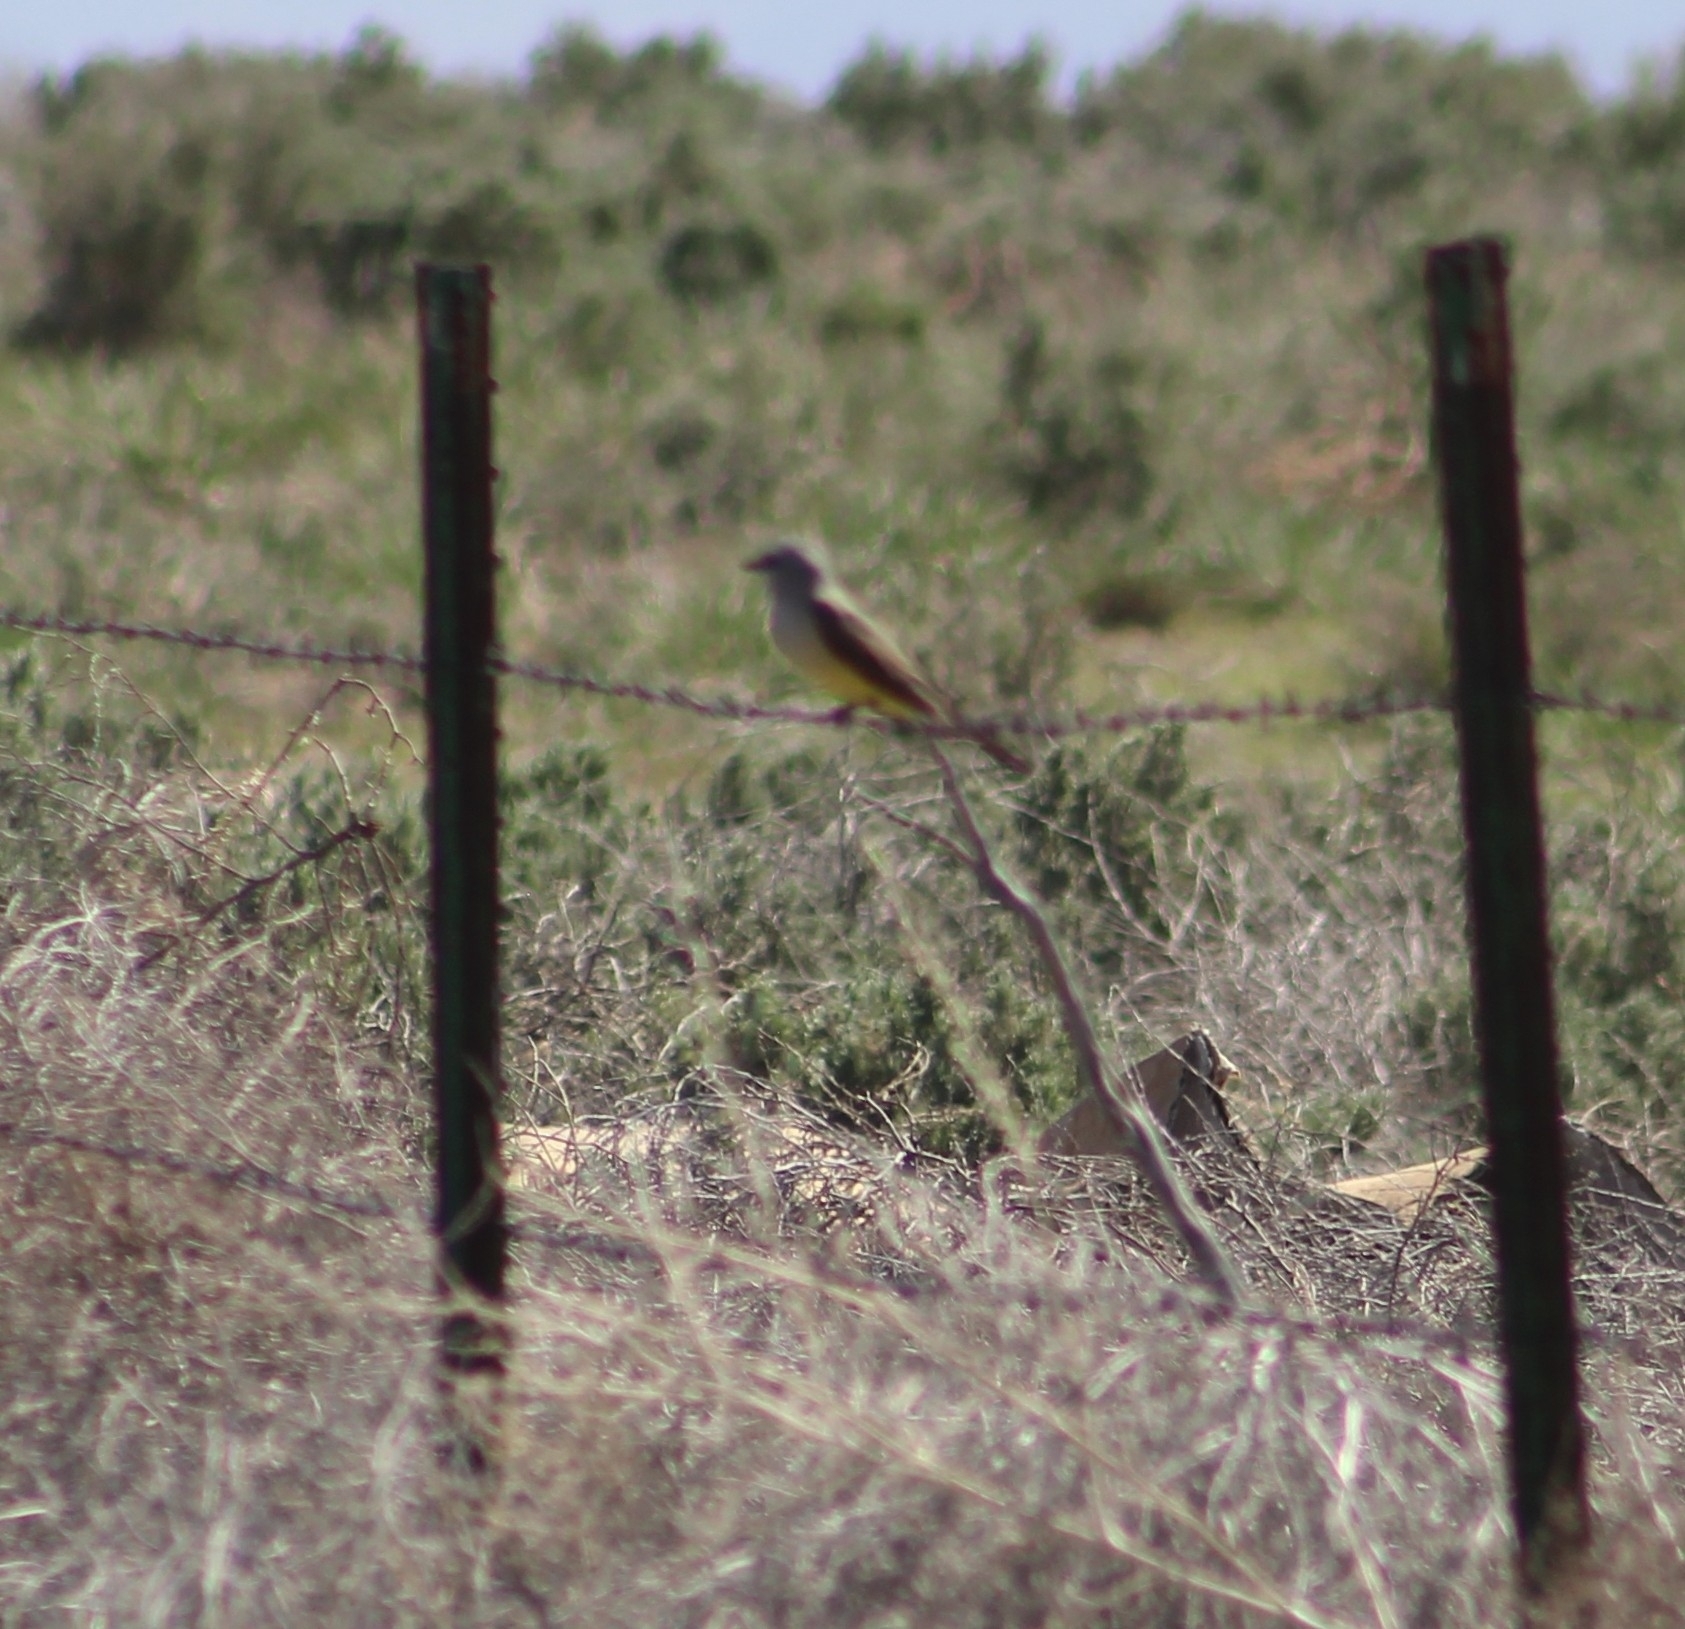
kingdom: Animalia
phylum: Chordata
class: Aves
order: Passeriformes
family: Tyrannidae
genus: Tyrannus
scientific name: Tyrannus verticalis
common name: Western kingbird
